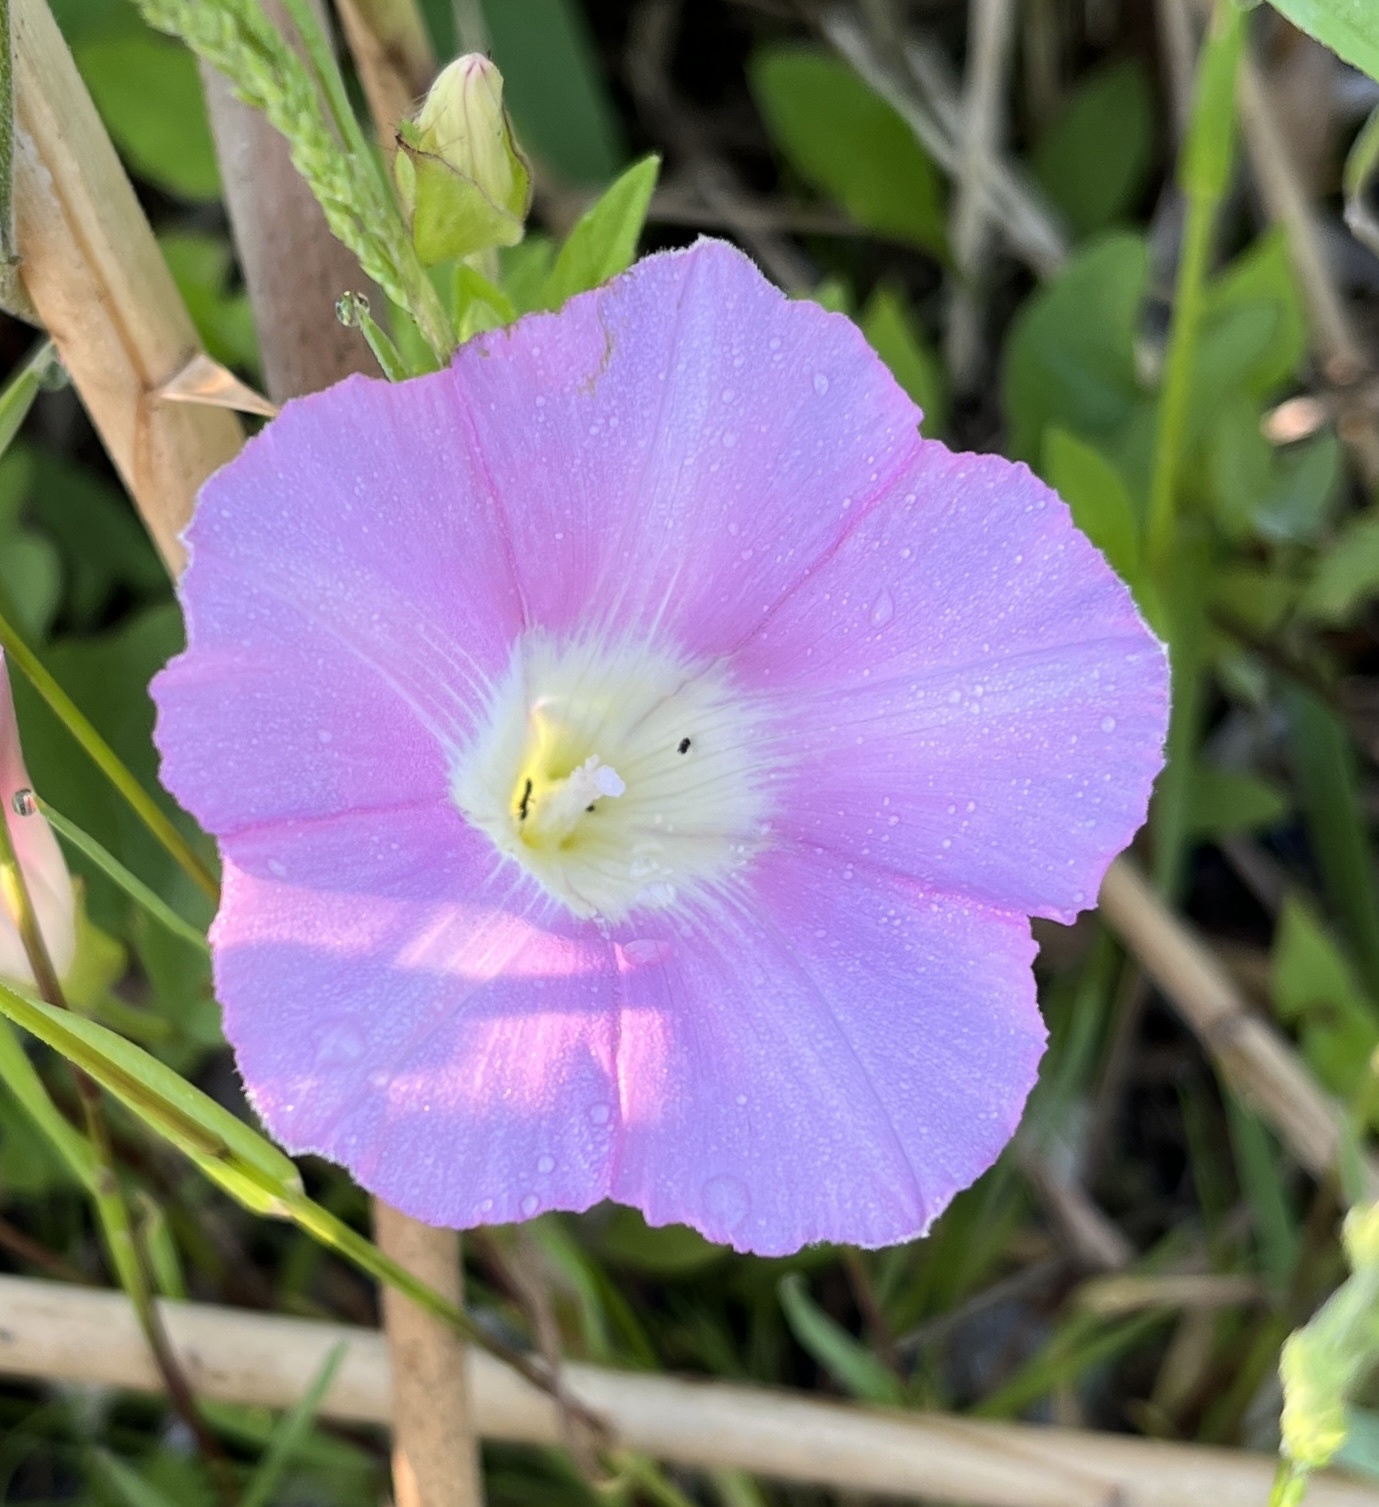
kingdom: Plantae
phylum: Tracheophyta
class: Magnoliopsida
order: Solanales
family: Convolvulaceae
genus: Calystegia
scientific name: Calystegia sepium
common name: Hedge bindweed
